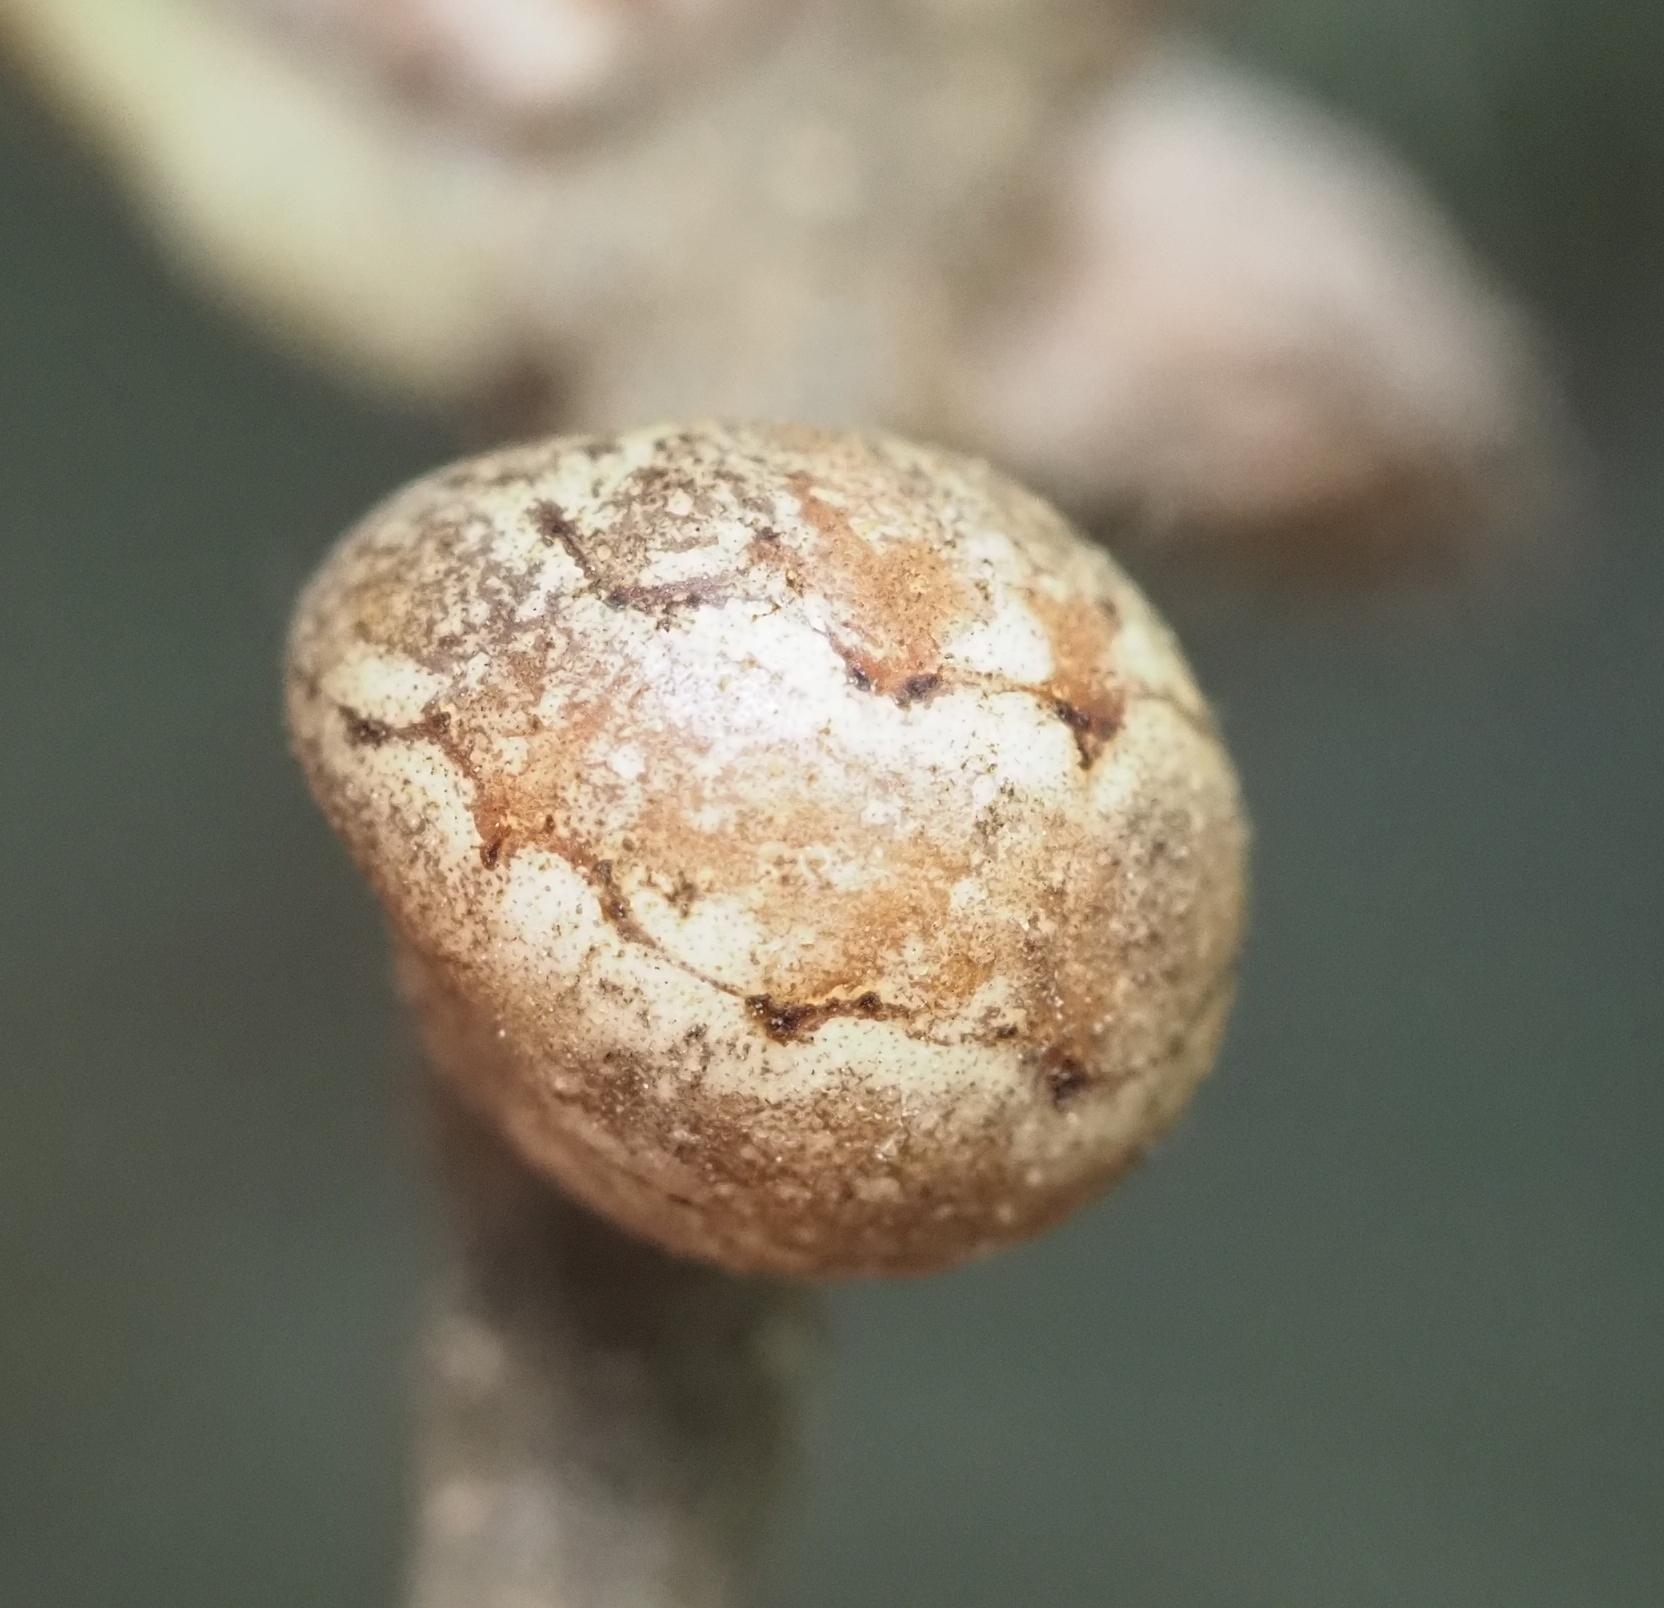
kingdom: Animalia
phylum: Arthropoda
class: Insecta
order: Hemiptera
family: Kermesidae
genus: Allokermes
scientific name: Allokermes cueroensis
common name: Live oak kermes
